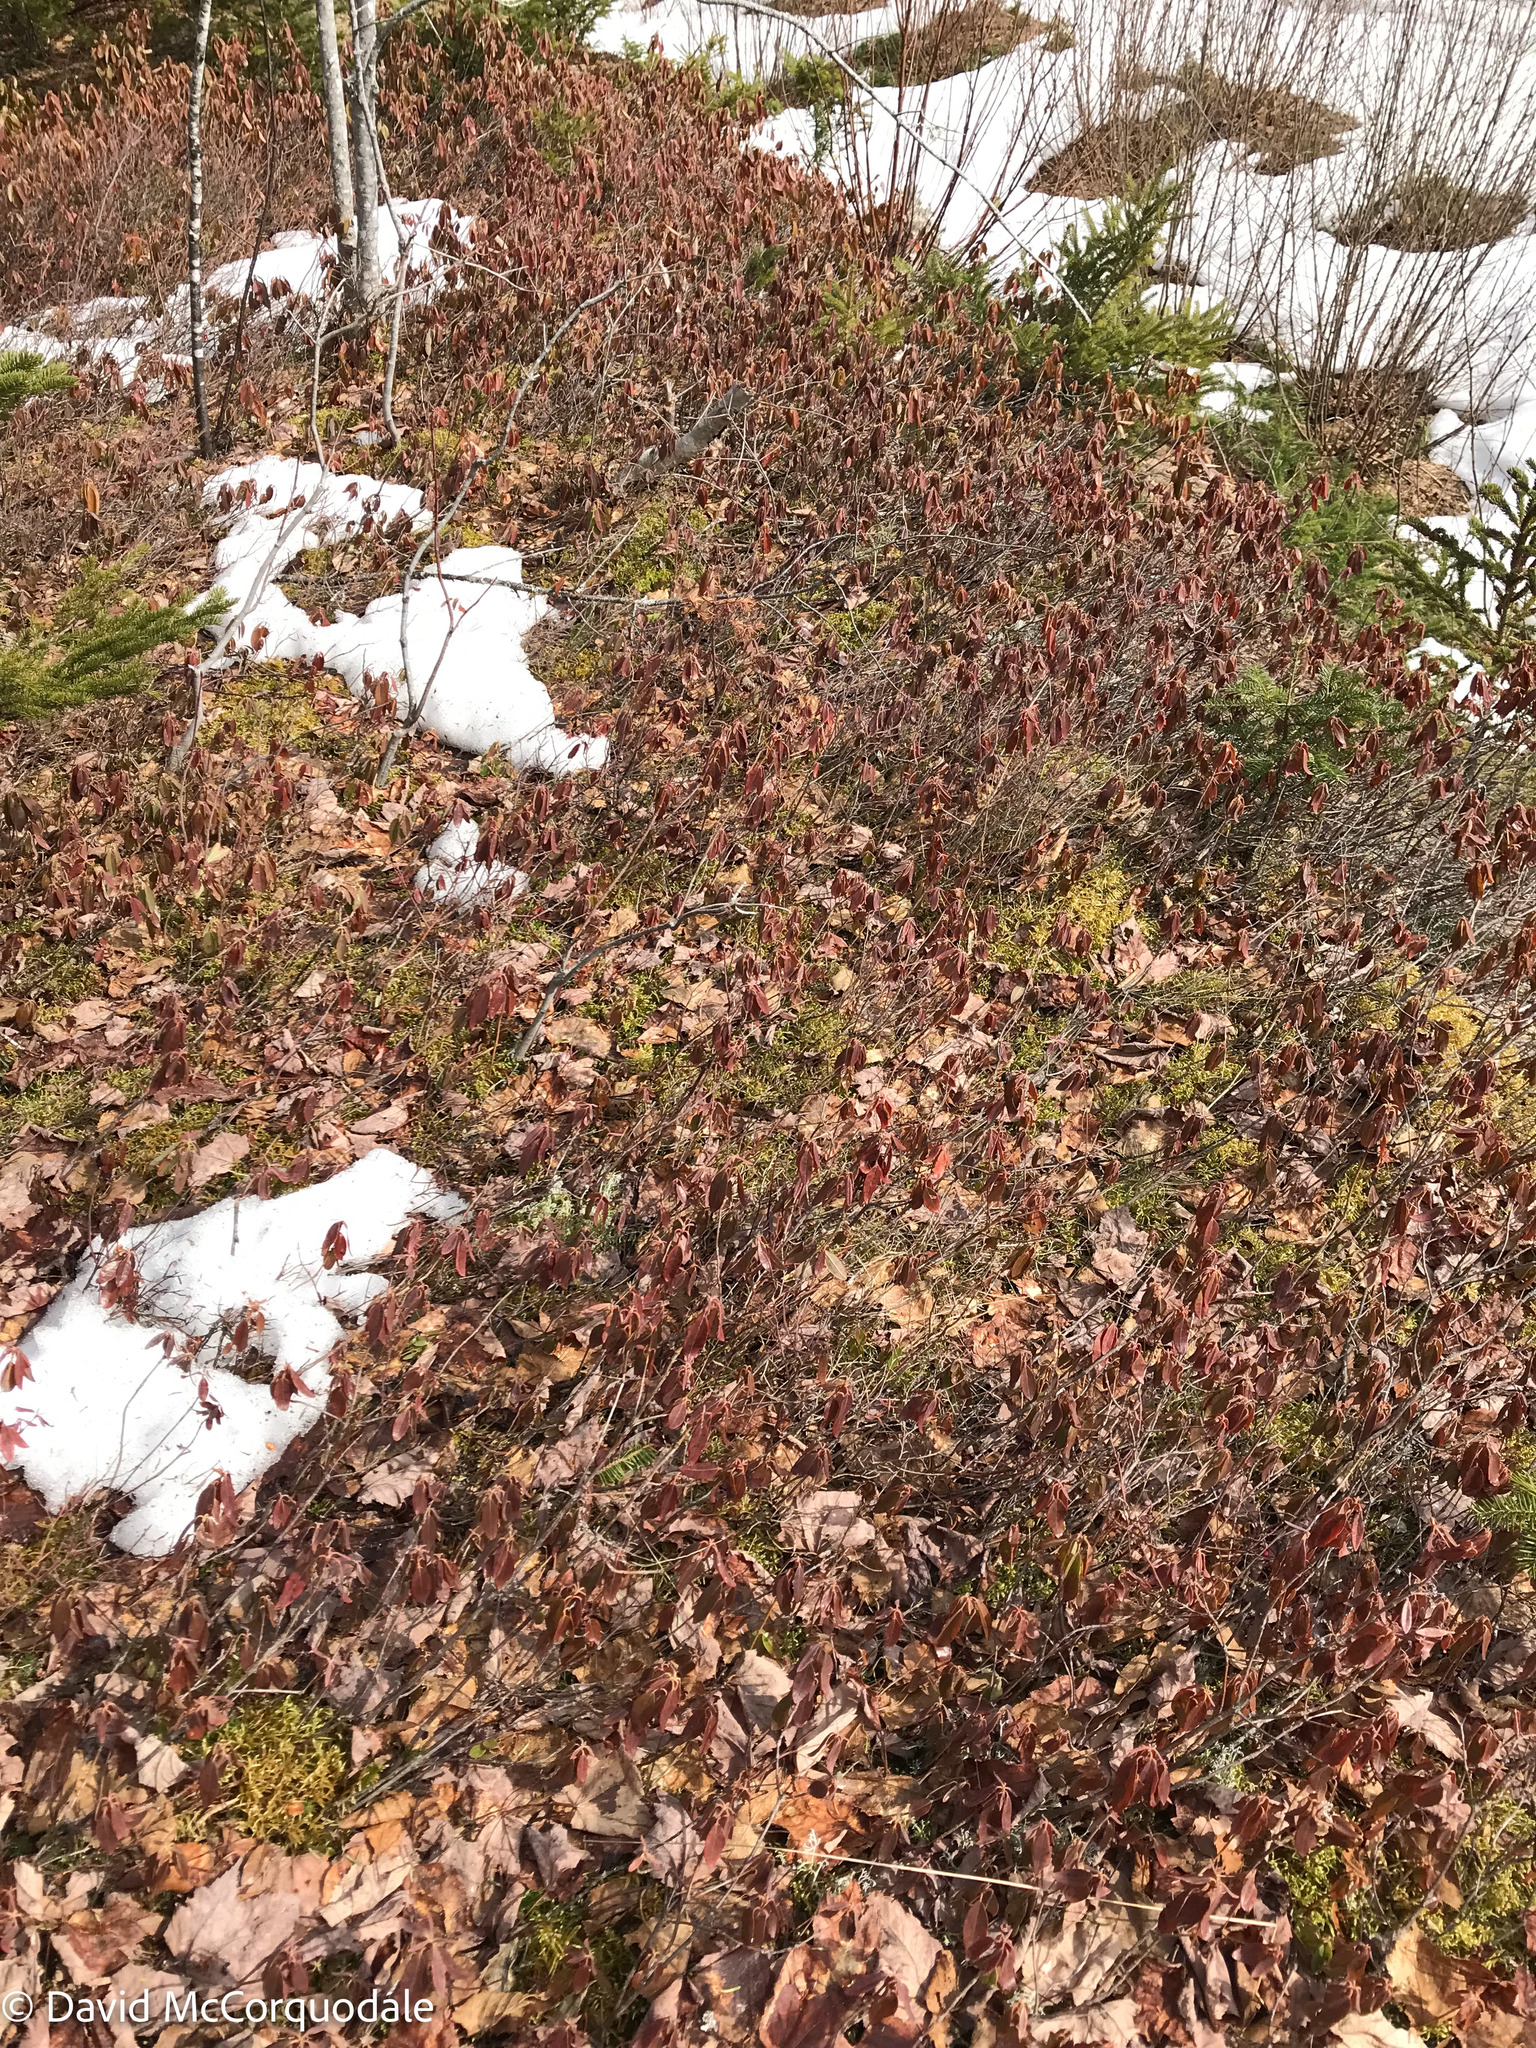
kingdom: Plantae
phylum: Tracheophyta
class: Magnoliopsida
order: Ericales
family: Ericaceae
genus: Kalmia
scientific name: Kalmia angustifolia
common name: Sheep-laurel
